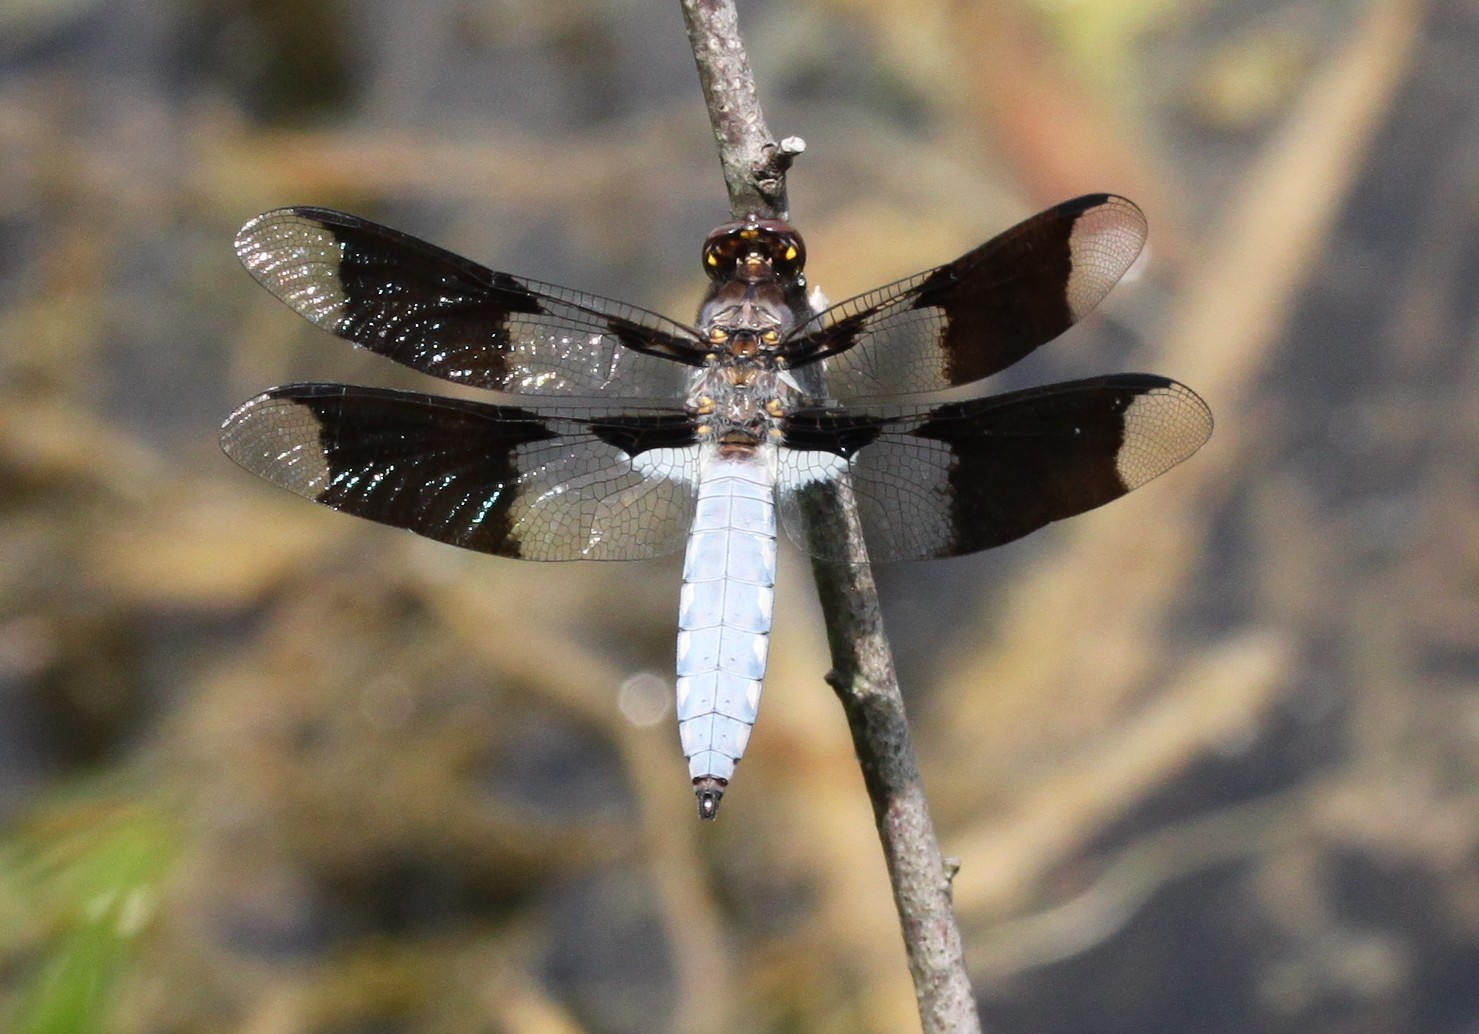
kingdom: Animalia
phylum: Arthropoda
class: Insecta
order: Odonata
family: Libellulidae
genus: Plathemis
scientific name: Plathemis lydia
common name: Common whitetail
